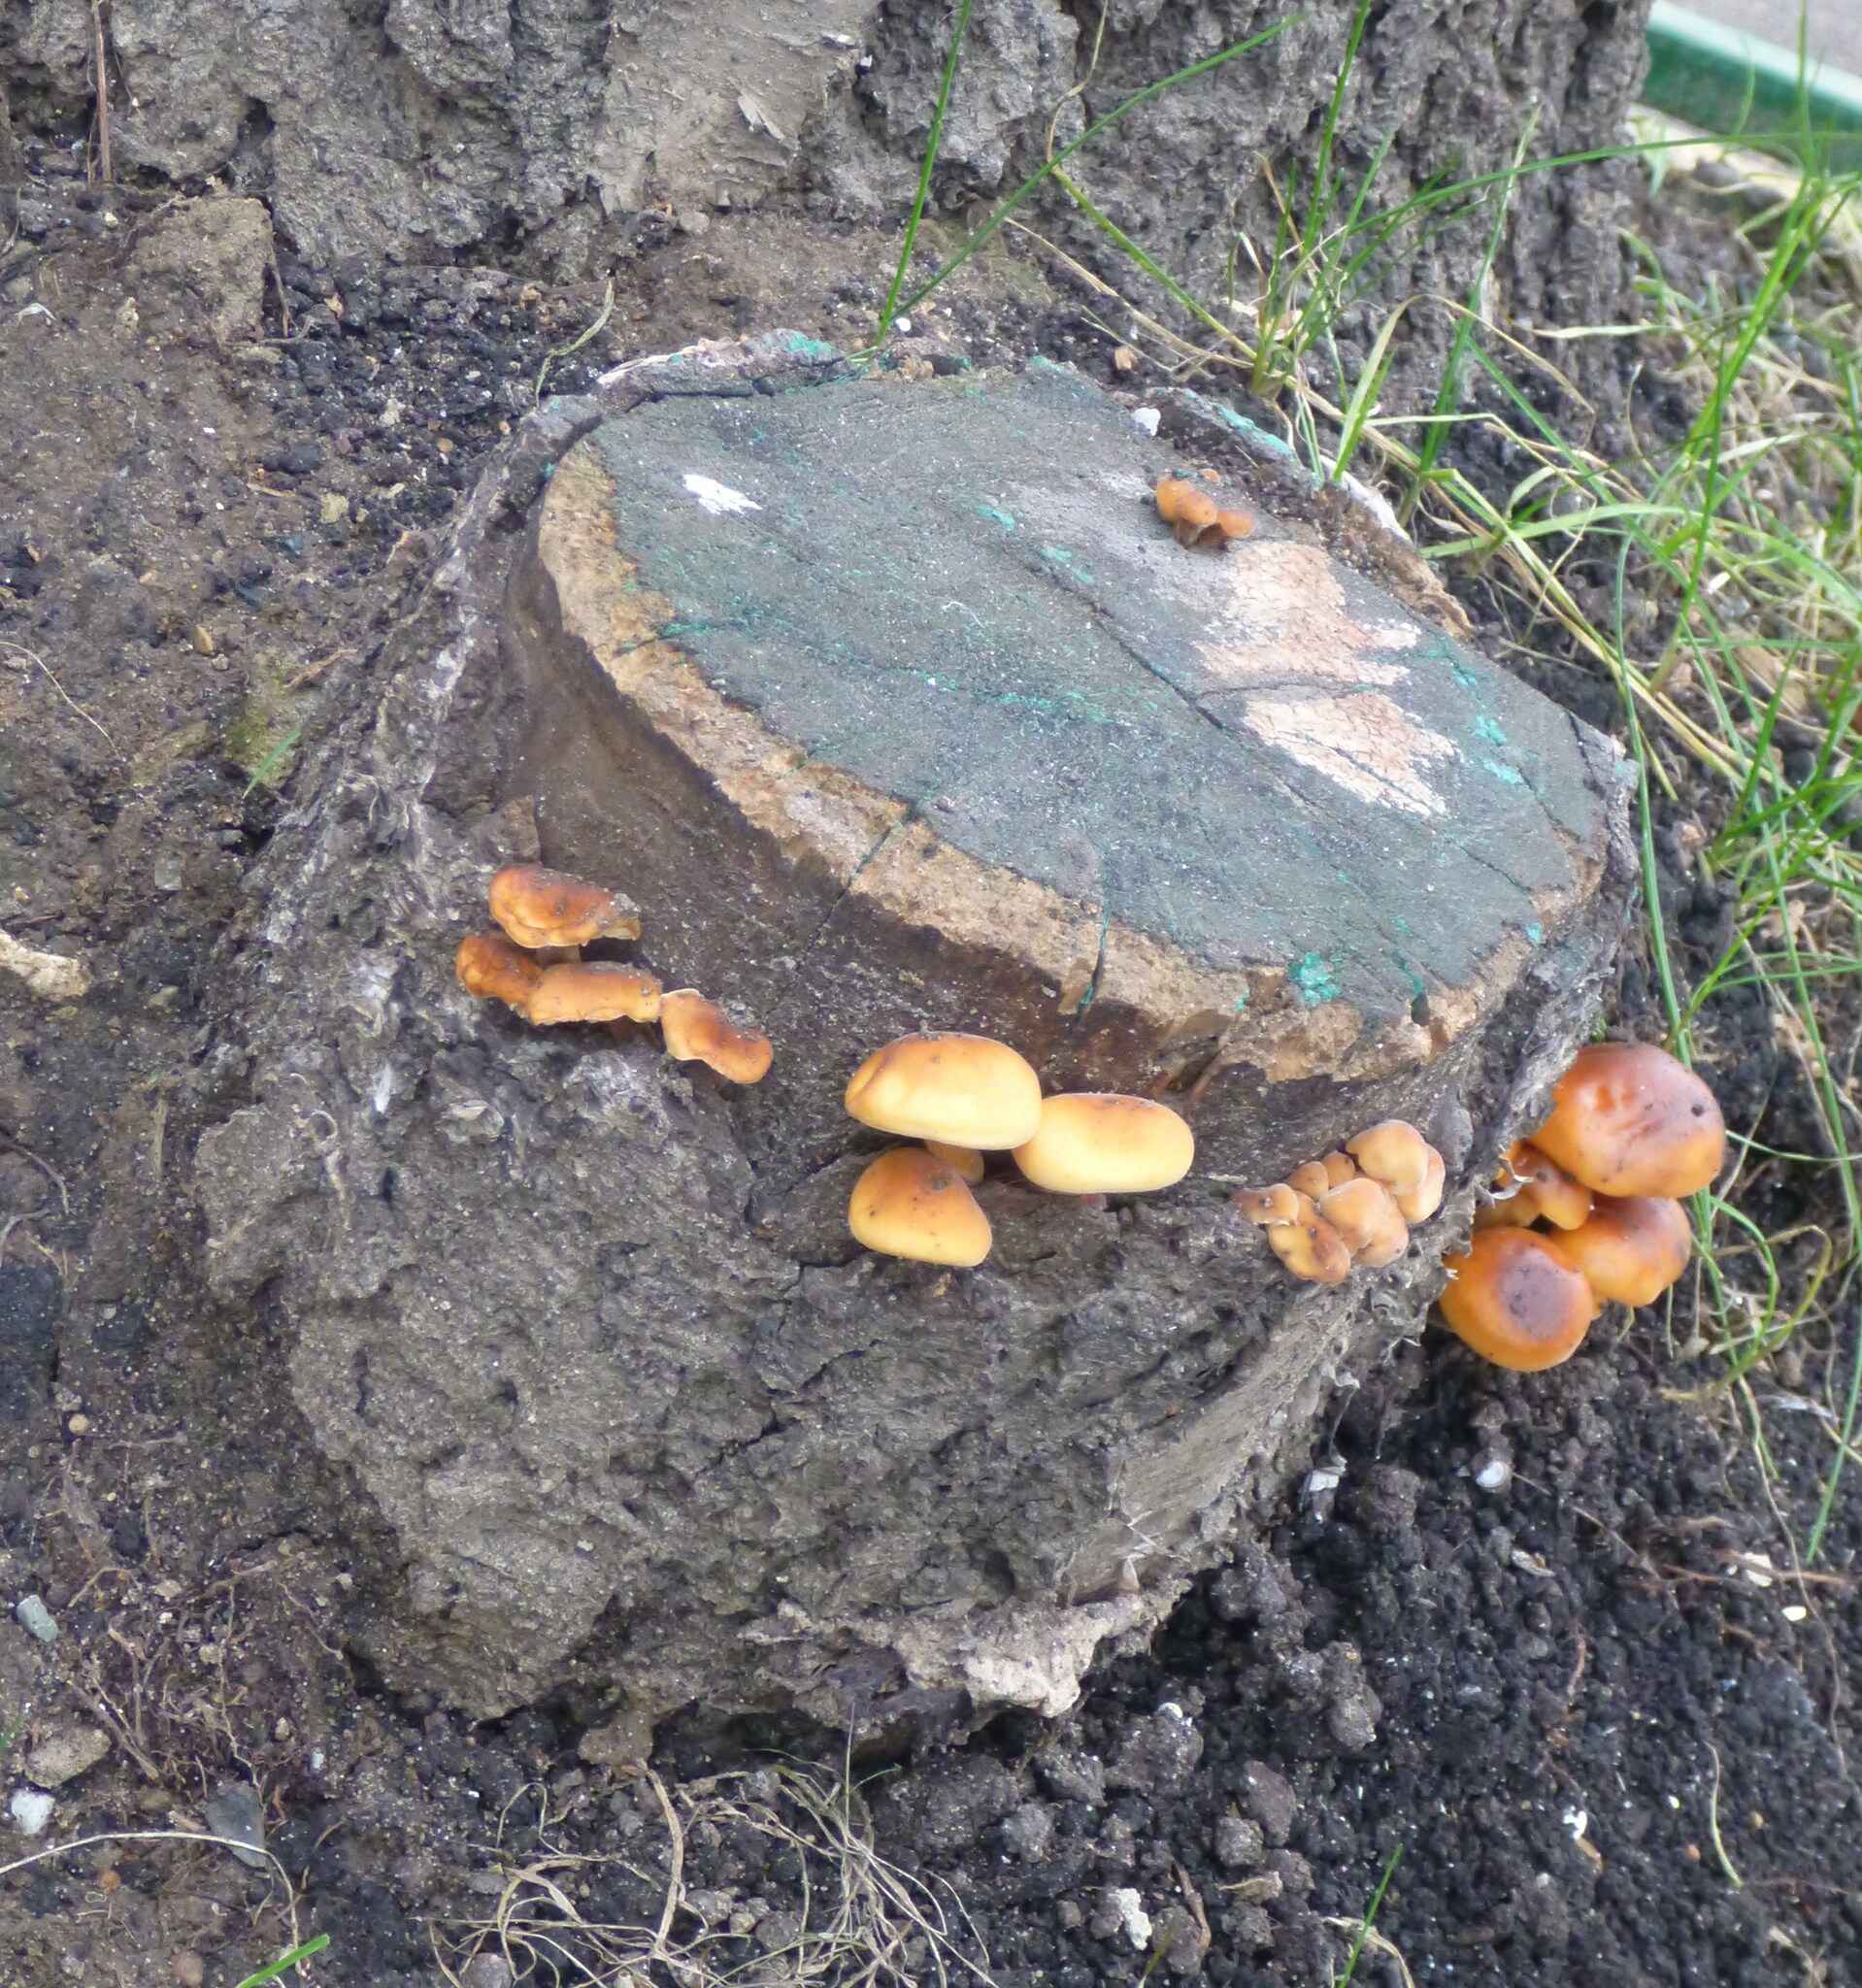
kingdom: Fungi
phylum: Basidiomycota
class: Agaricomycetes
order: Agaricales
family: Physalacriaceae
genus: Flammulina
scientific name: Flammulina
